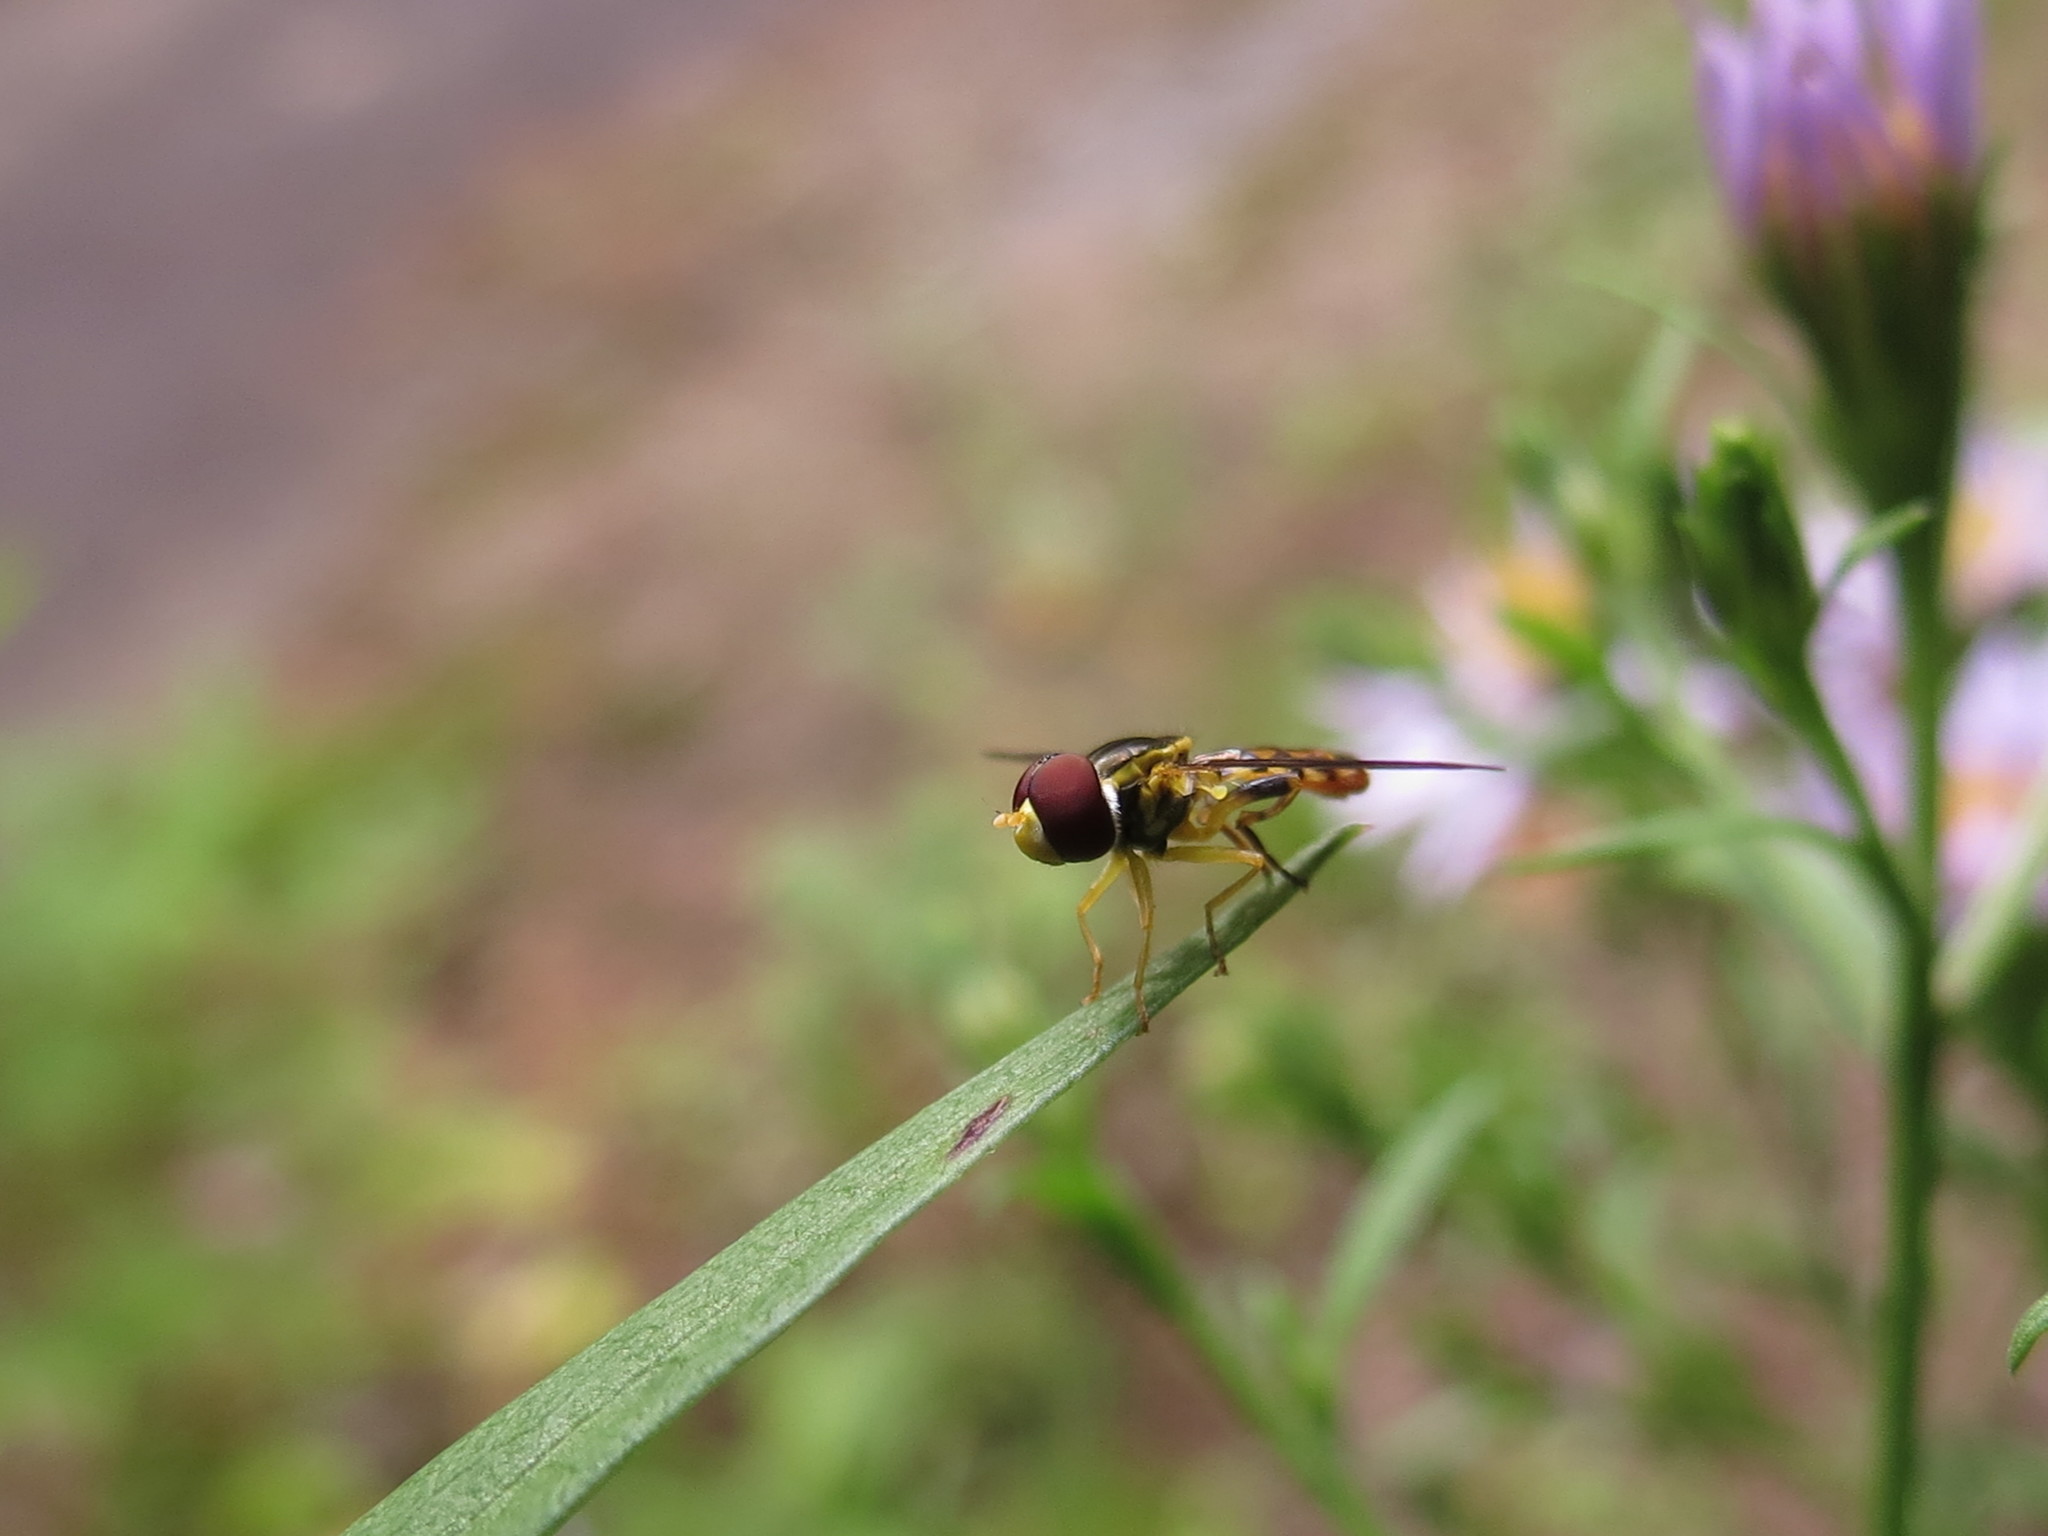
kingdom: Animalia
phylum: Arthropoda
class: Insecta
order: Diptera
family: Syrphidae
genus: Toxomerus
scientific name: Toxomerus geminatus
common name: Eastern calligrapher
